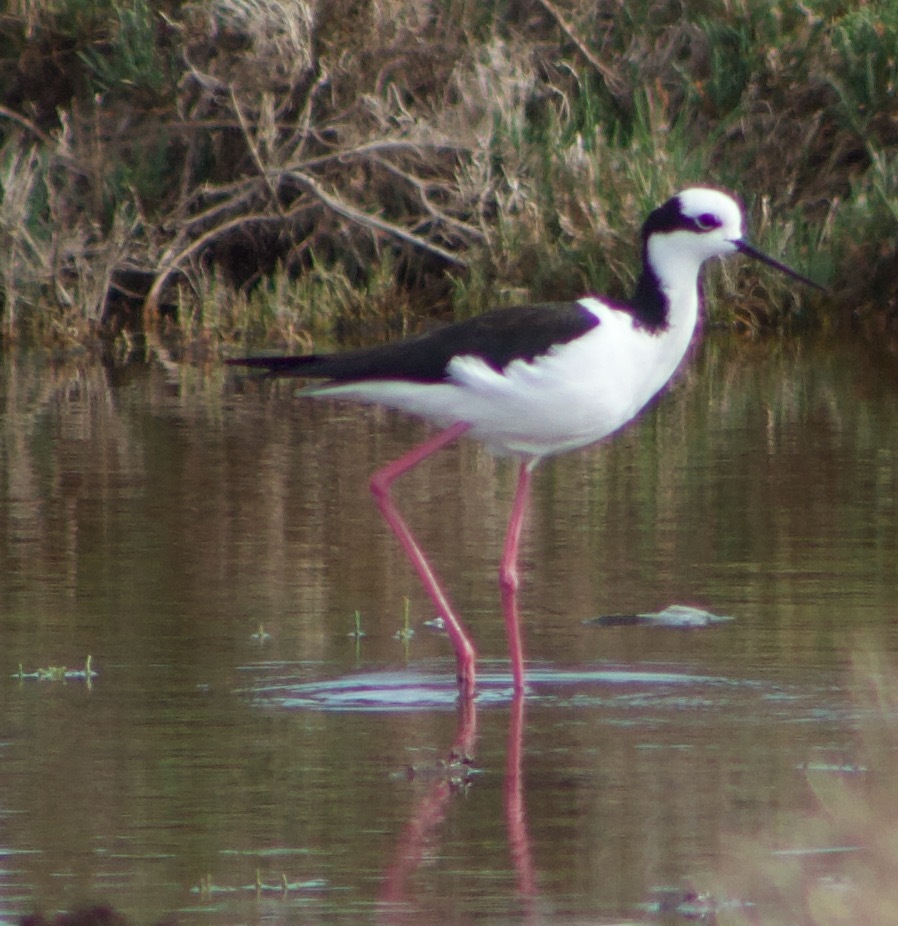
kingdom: Animalia
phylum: Chordata
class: Aves
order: Charadriiformes
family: Recurvirostridae
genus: Himantopus
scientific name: Himantopus mexicanus
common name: Black-necked stilt
